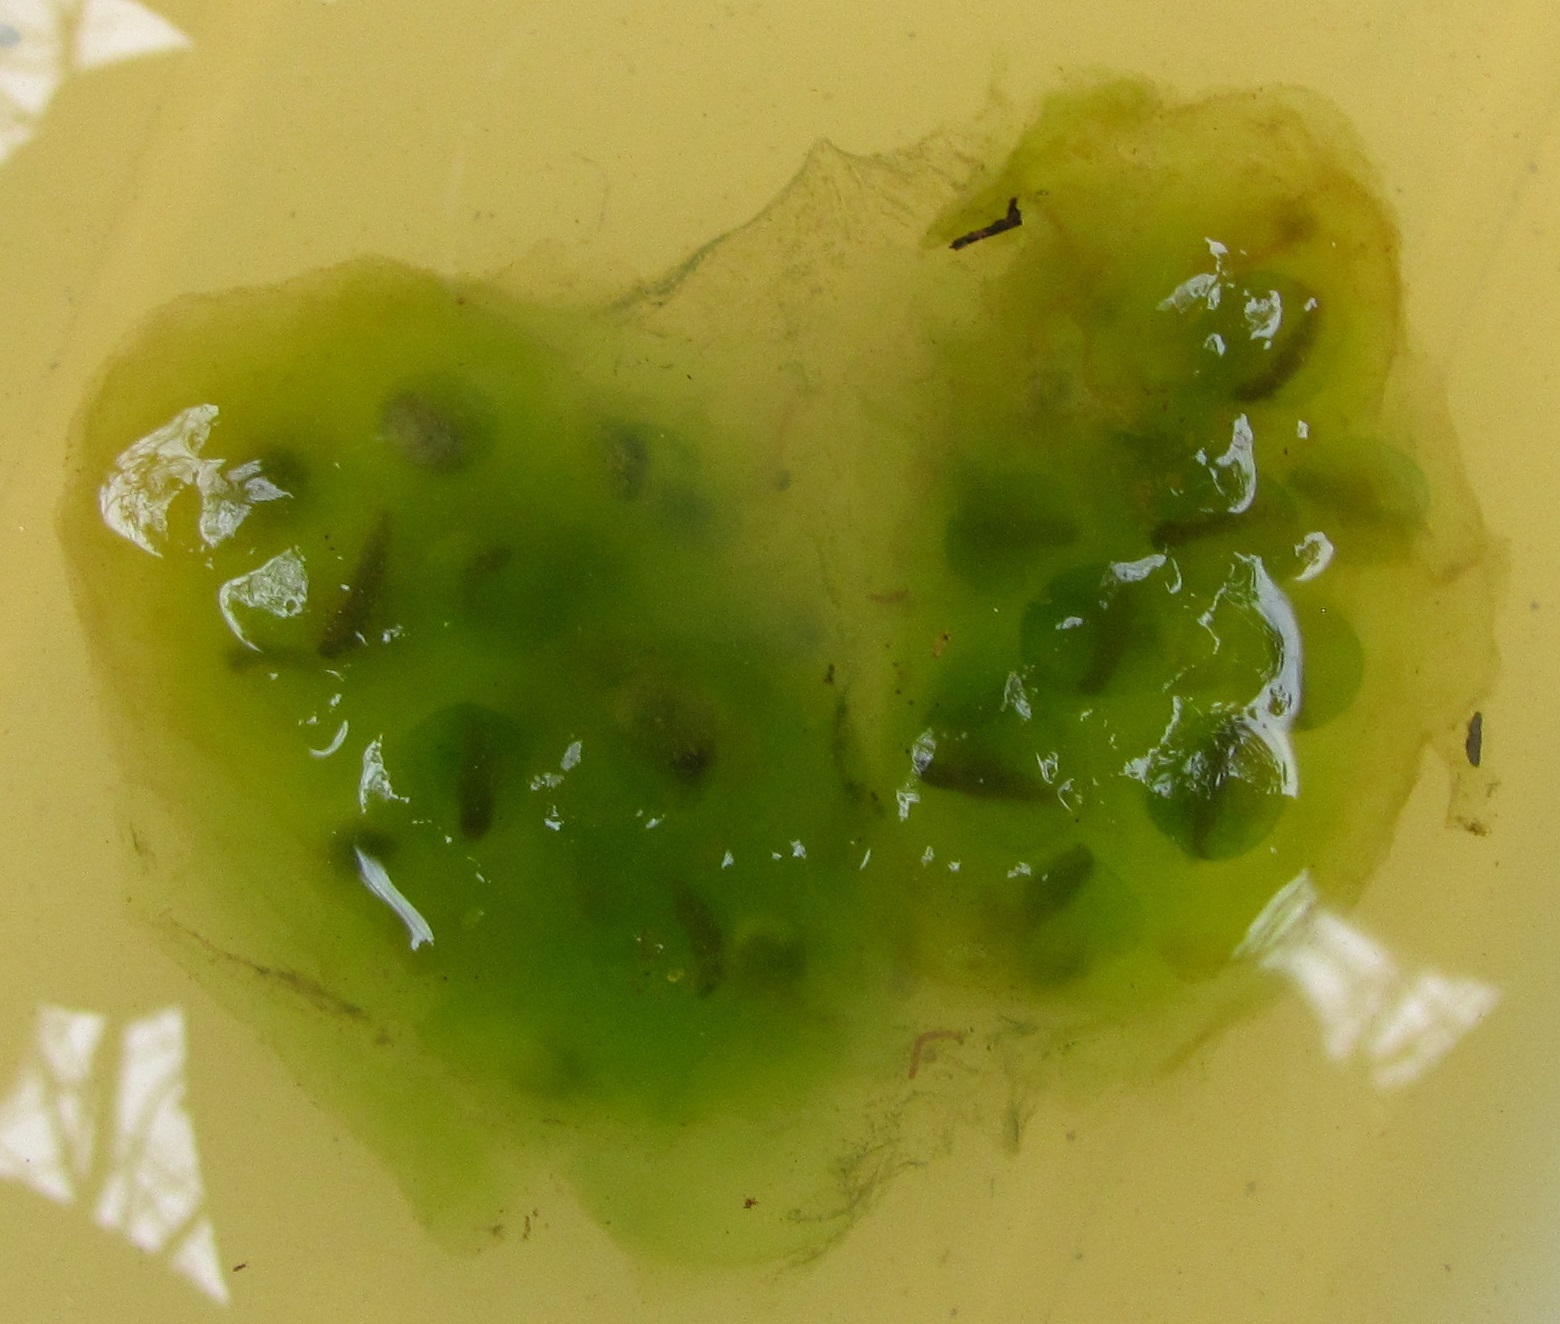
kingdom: Animalia
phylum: Chordata
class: Amphibia
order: Caudata
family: Ambystomatidae
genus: Ambystoma
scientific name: Ambystoma maculatum
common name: Spotted salamander
